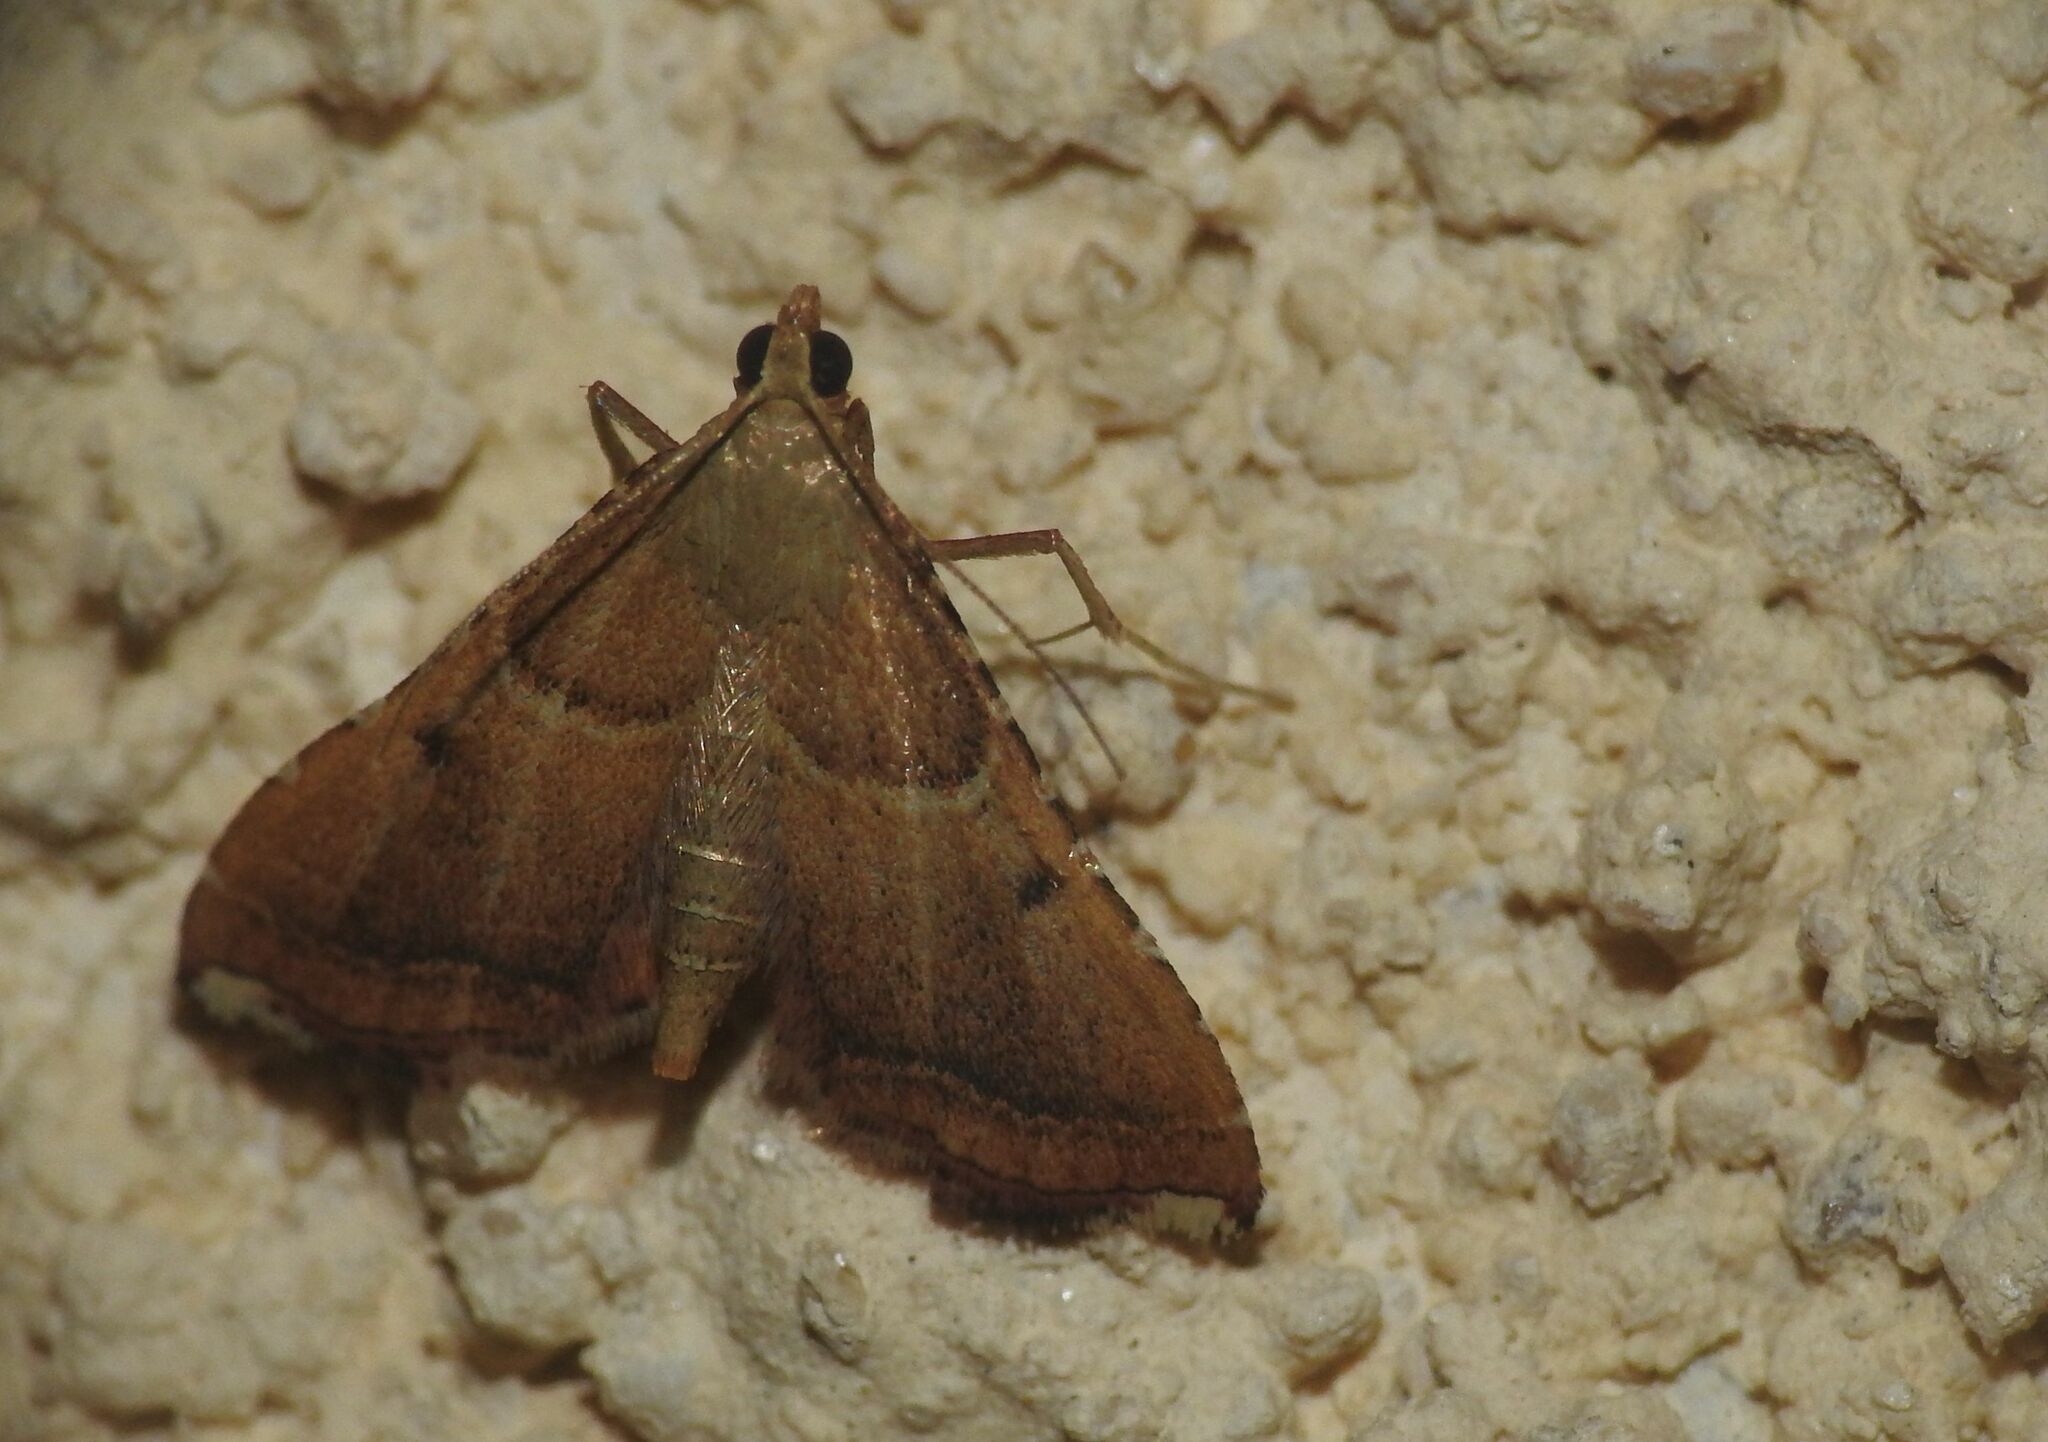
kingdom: Animalia
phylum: Arthropoda
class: Insecta
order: Lepidoptera
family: Pyralidae
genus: Endotricha
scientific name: Endotricha flammealis
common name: Rosy tabby
